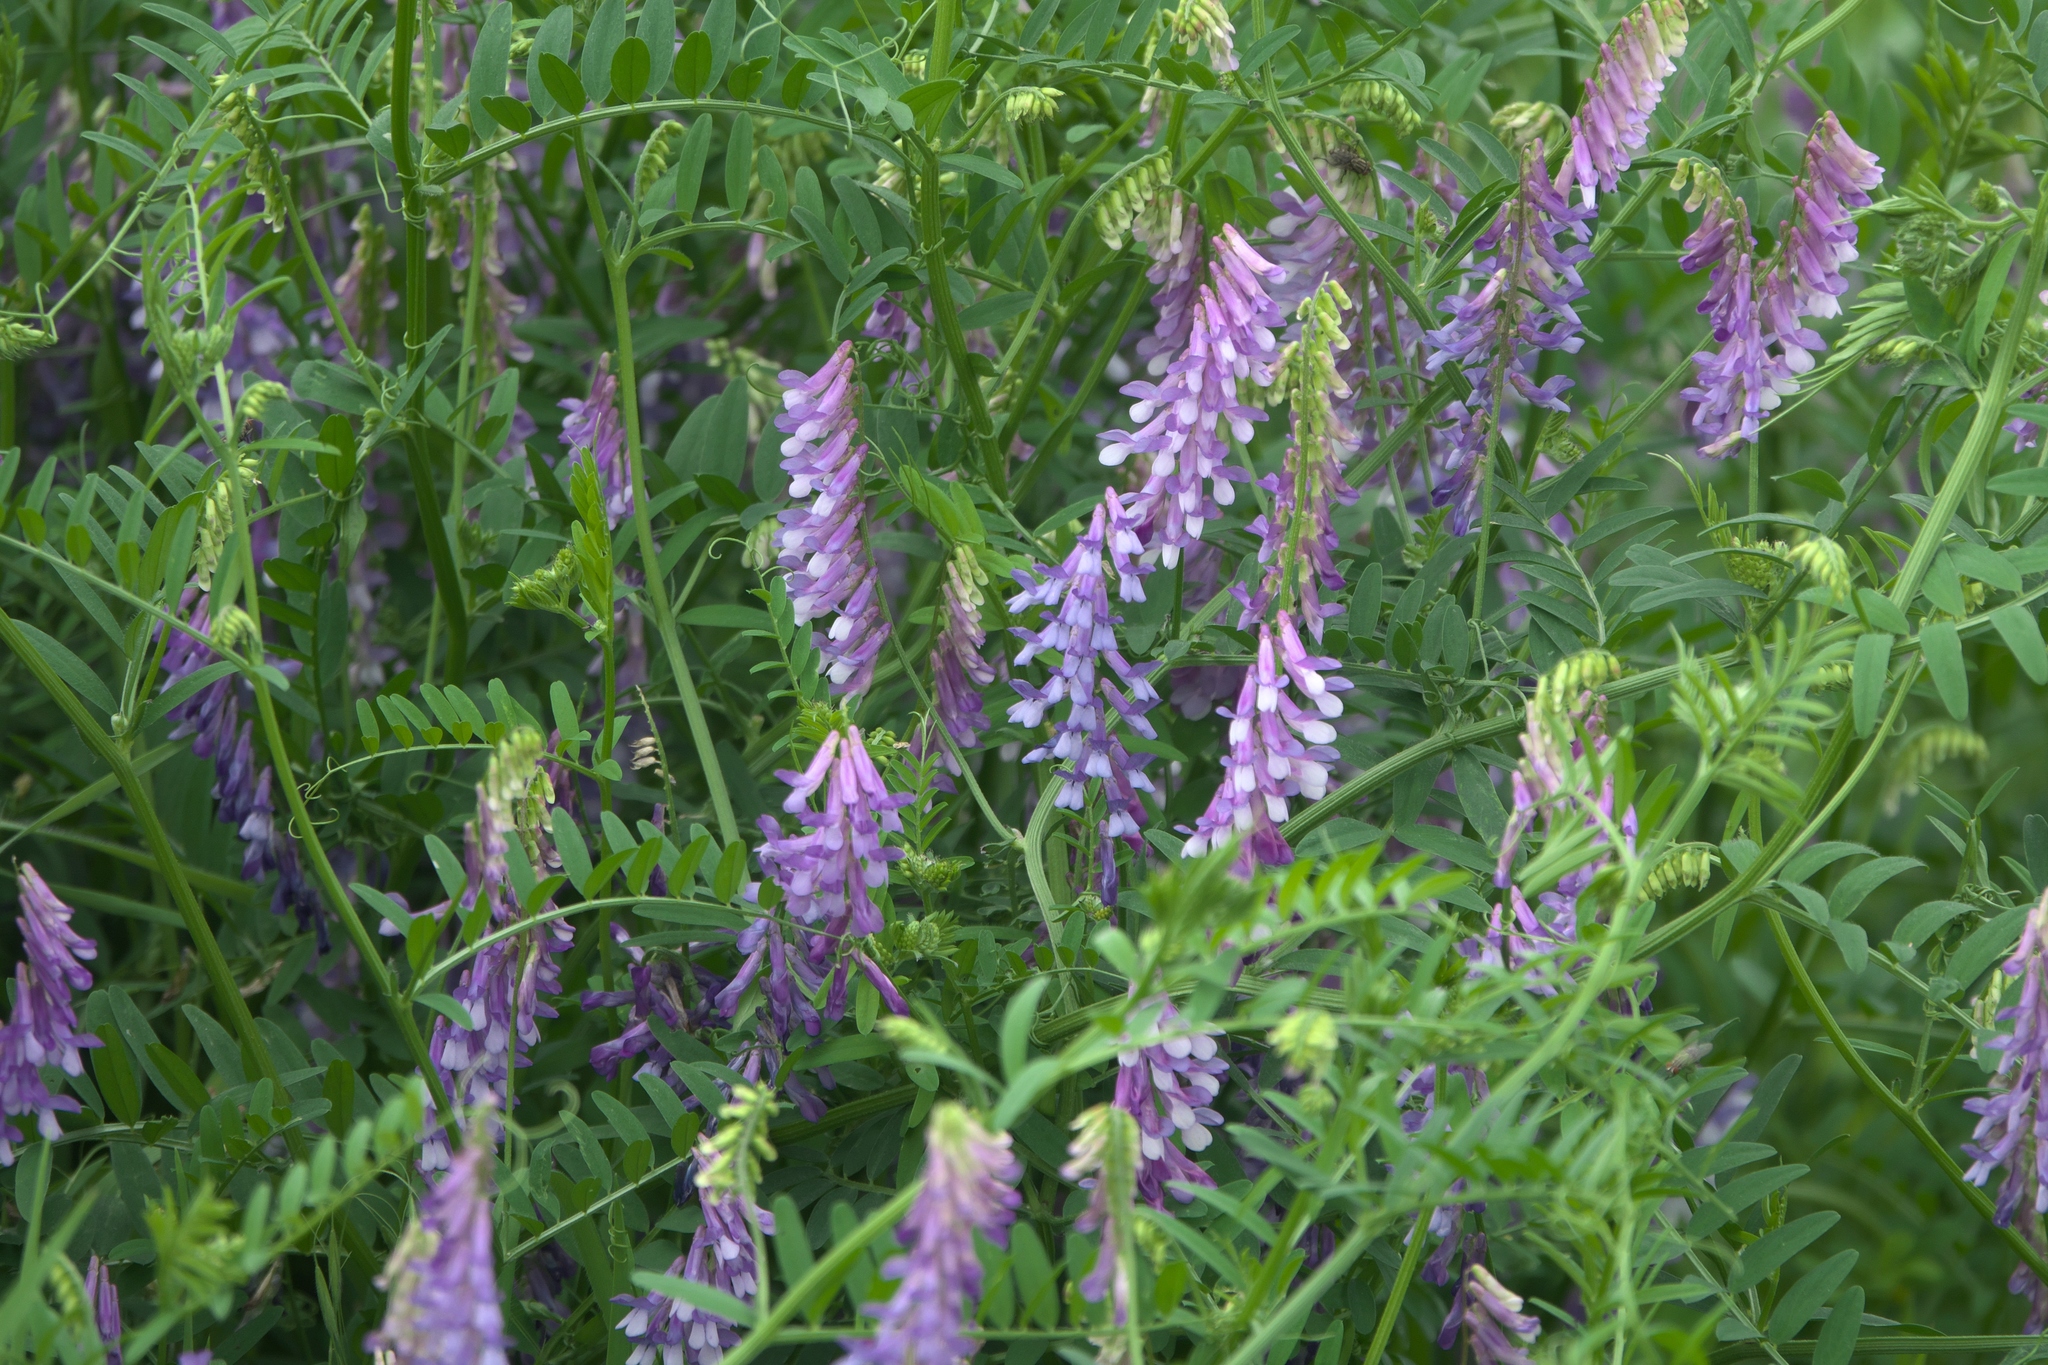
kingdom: Plantae
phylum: Tracheophyta
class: Magnoliopsida
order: Fabales
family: Fabaceae
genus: Vicia
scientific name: Vicia villosa
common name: Fodder vetch
